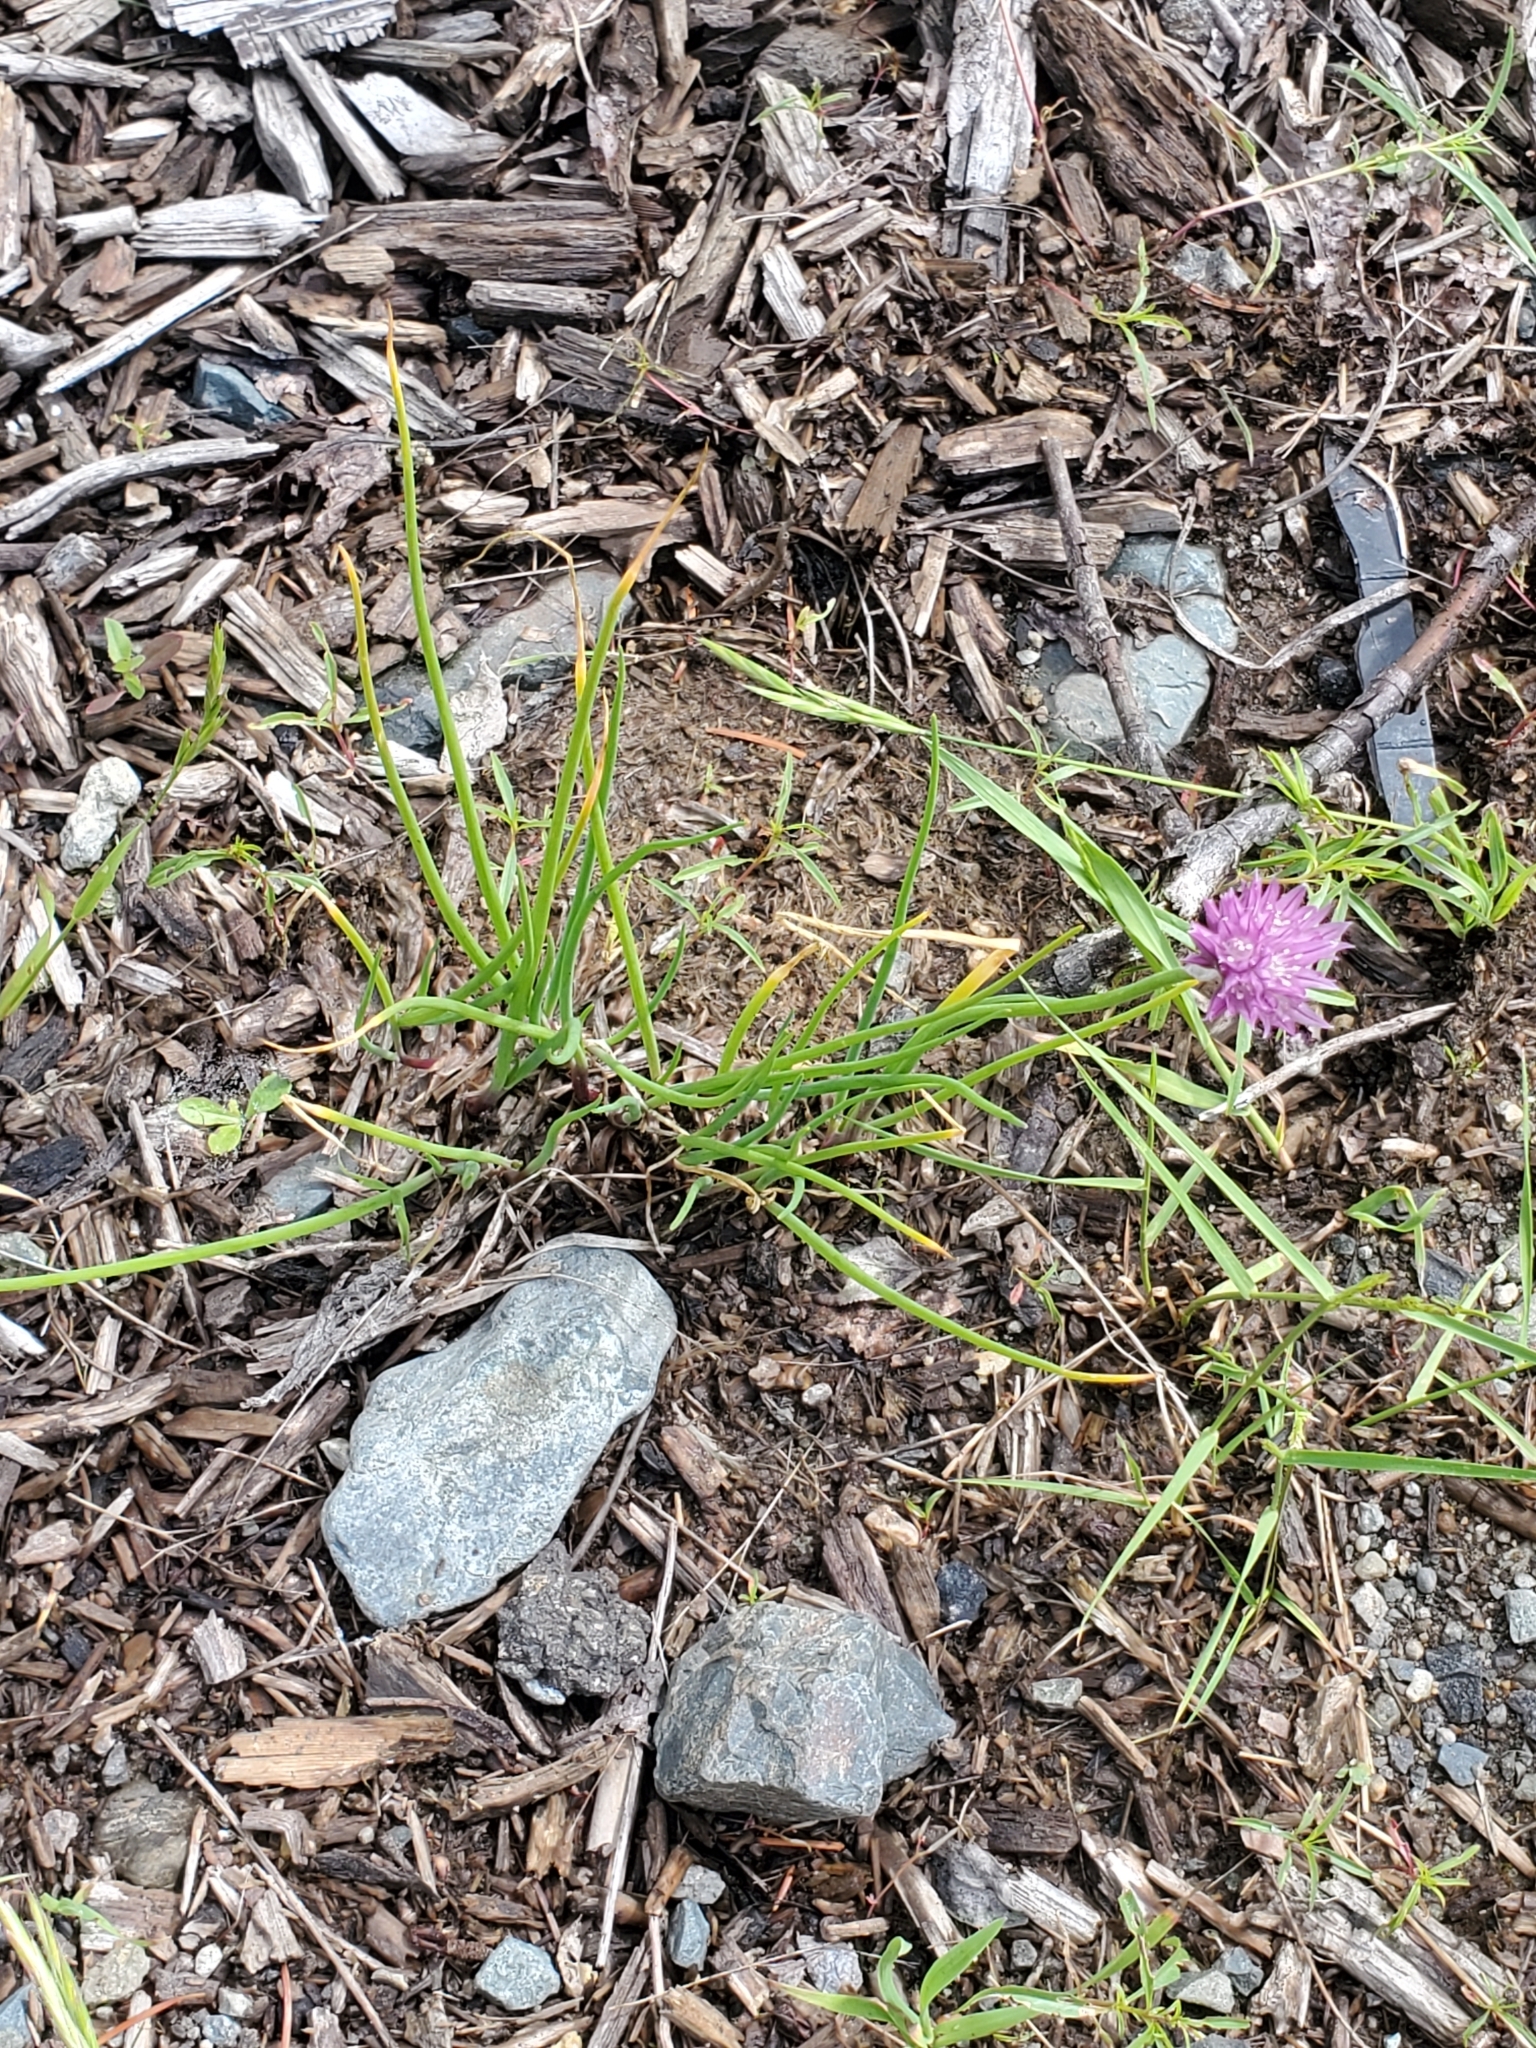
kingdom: Plantae
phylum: Tracheophyta
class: Liliopsida
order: Asparagales
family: Amaryllidaceae
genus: Allium
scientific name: Allium schoenoprasum
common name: Chives
